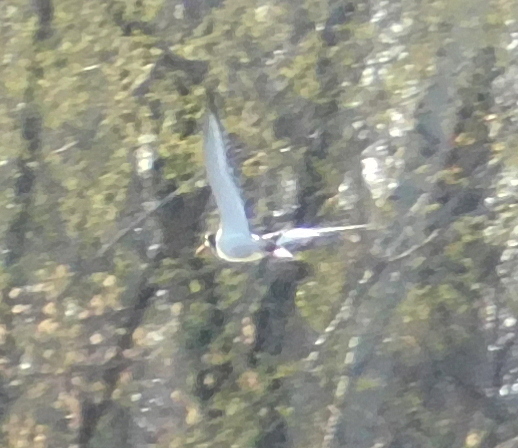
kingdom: Animalia
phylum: Chordata
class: Aves
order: Charadriiformes
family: Haematopodidae
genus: Haematopus
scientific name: Haematopus ostralegus
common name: Eurasian oystercatcher
